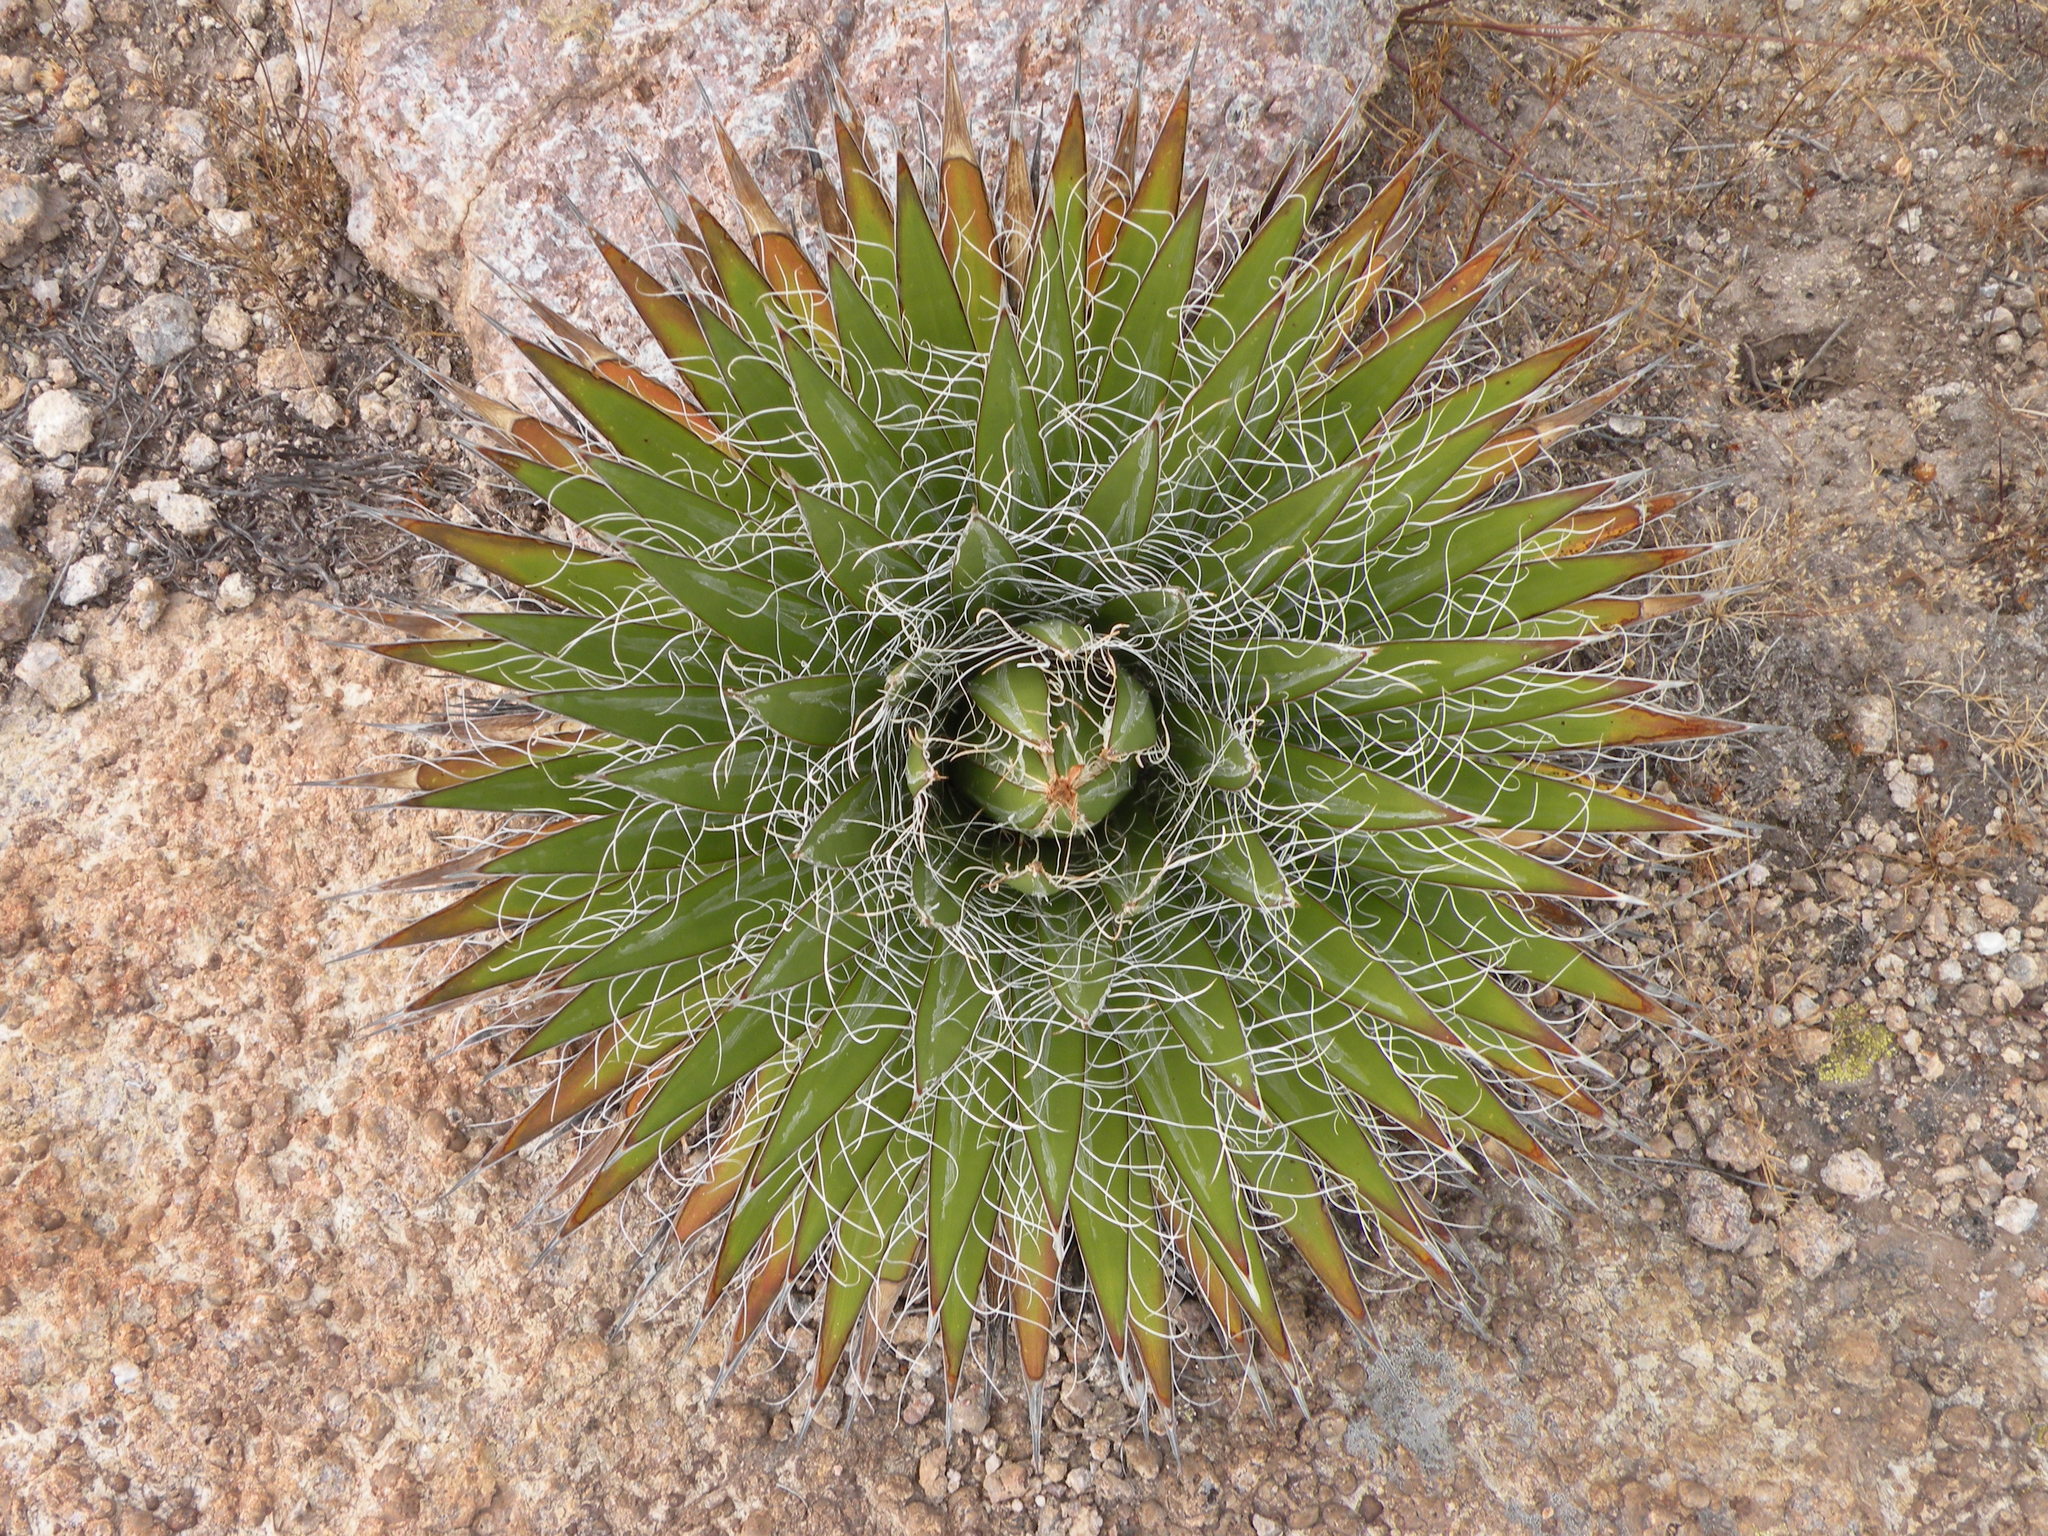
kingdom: Plantae
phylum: Tracheophyta
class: Liliopsida
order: Asparagales
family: Asparagaceae
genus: Agave
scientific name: Agave schidigera
